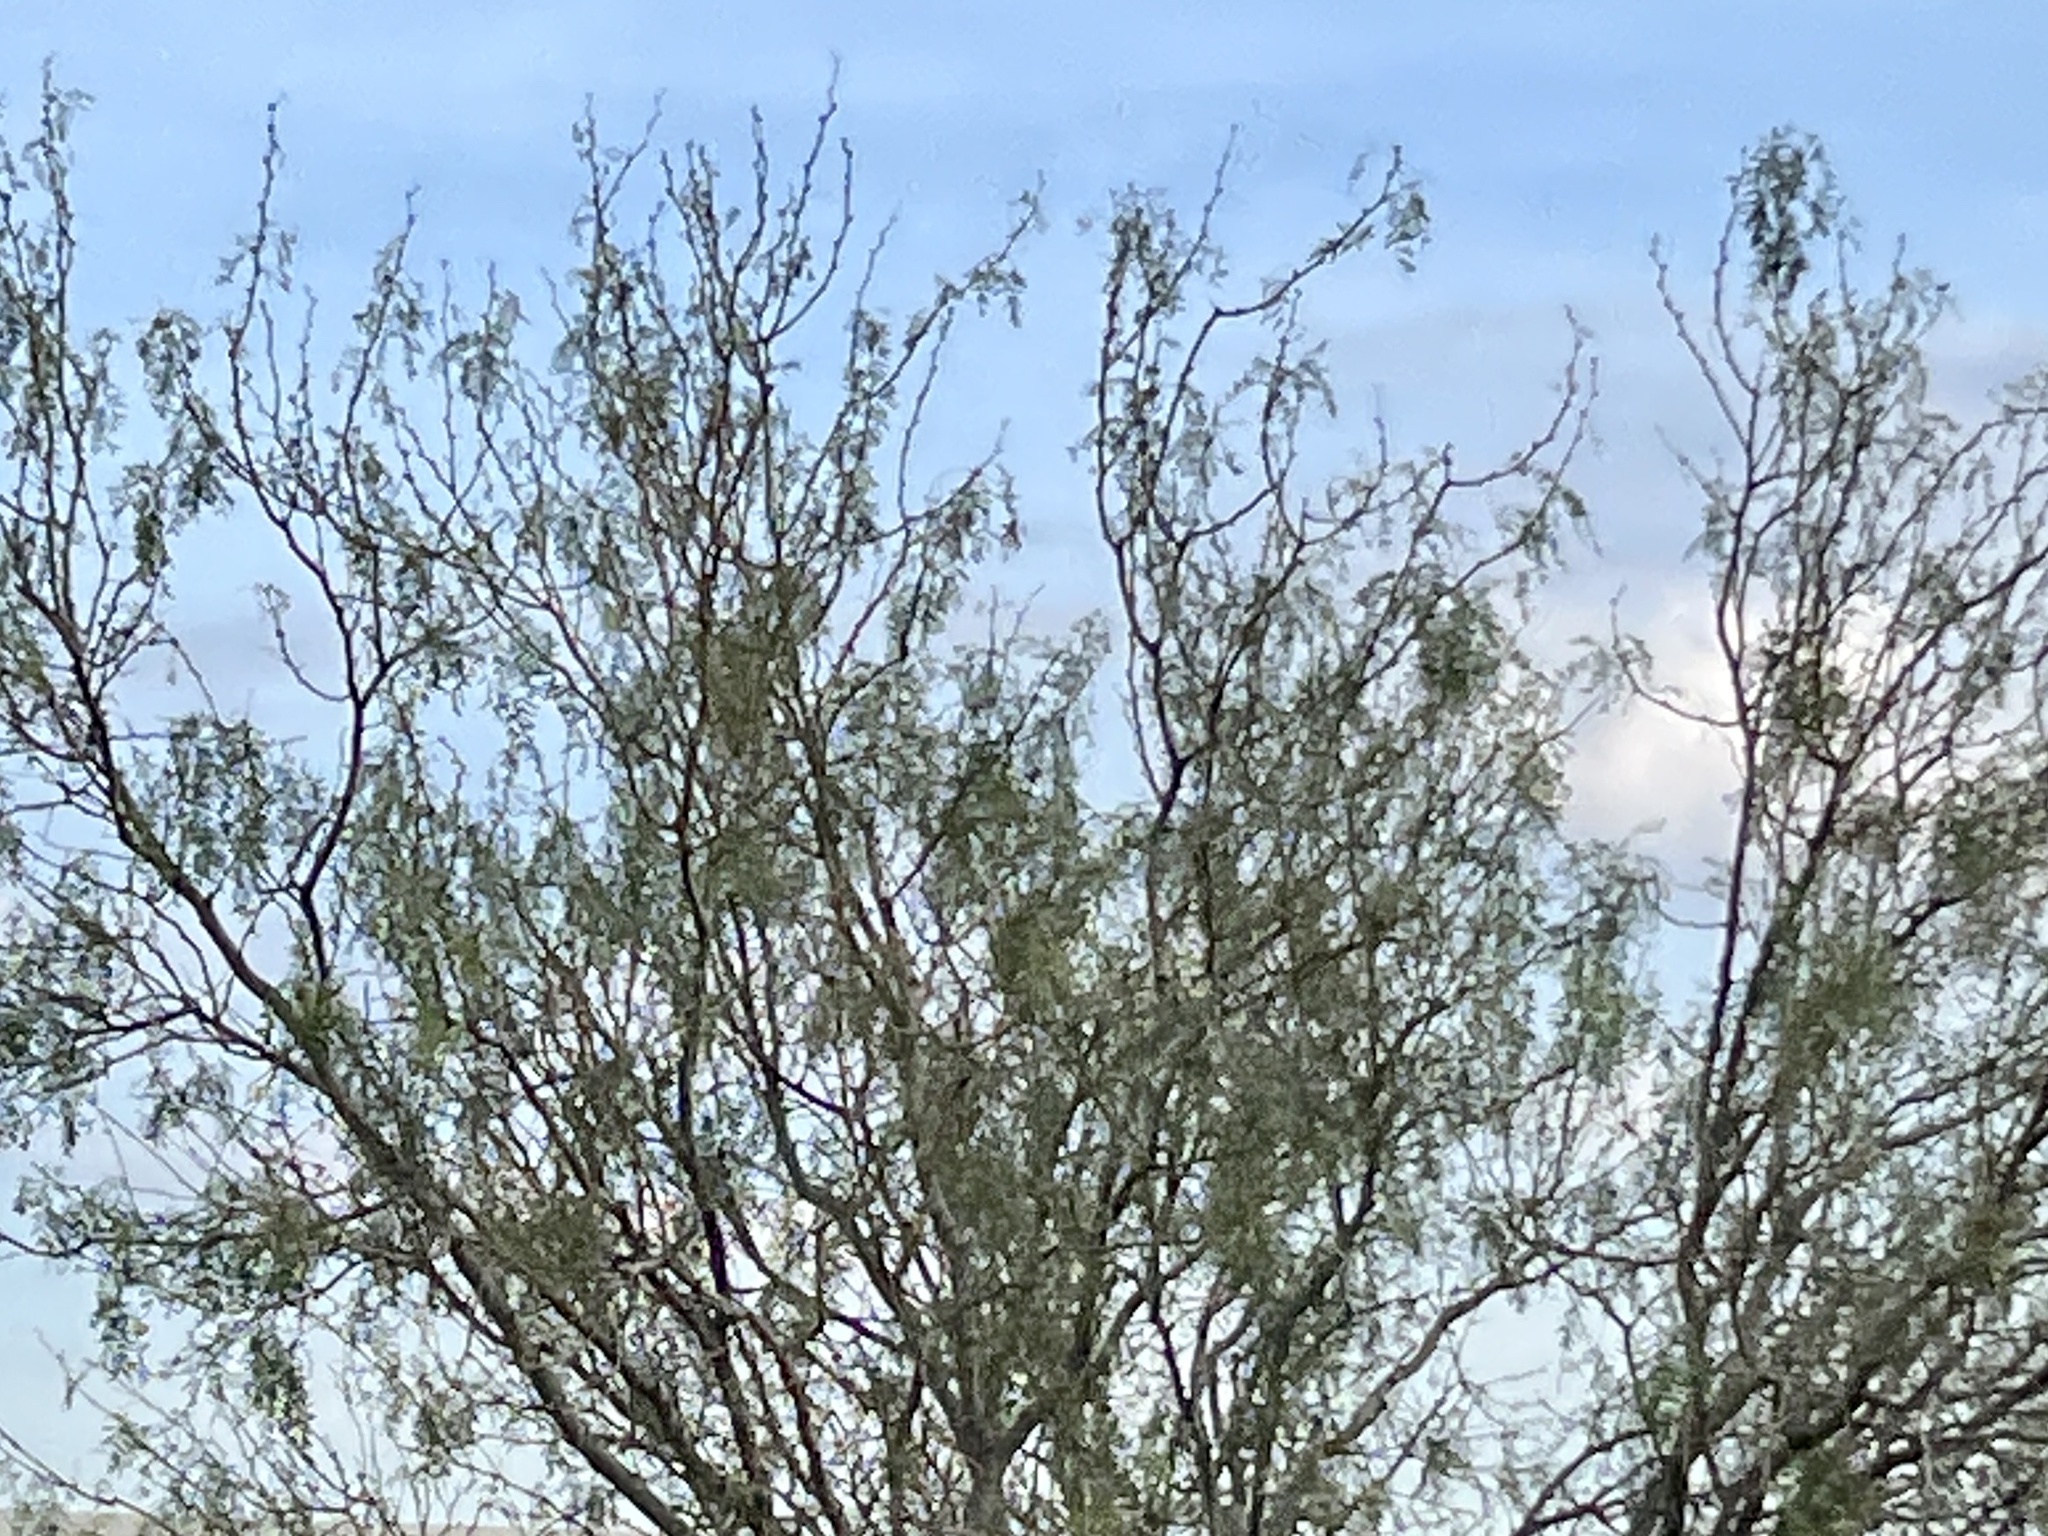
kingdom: Plantae
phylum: Tracheophyta
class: Magnoliopsida
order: Fabales
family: Fabaceae
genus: Prosopis
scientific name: Prosopis glandulosa
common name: Honey mesquite
